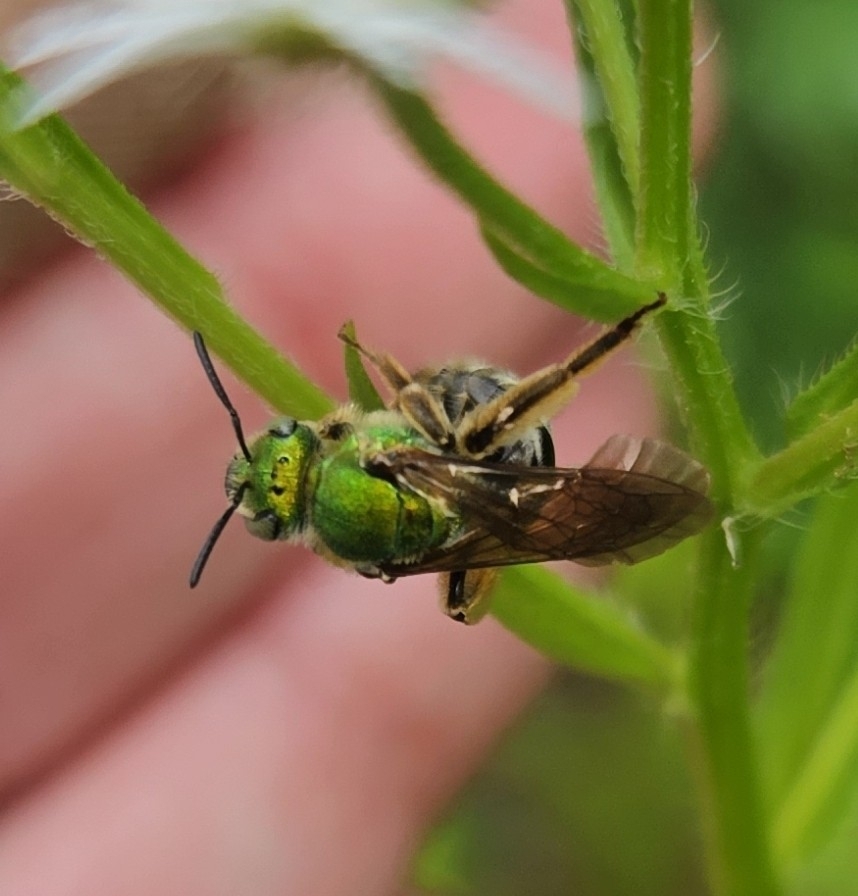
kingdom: Animalia
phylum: Arthropoda
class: Insecta
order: Hymenoptera
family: Halictidae
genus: Agapostemon
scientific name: Agapostemon virescens
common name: Bicolored striped sweat bee
